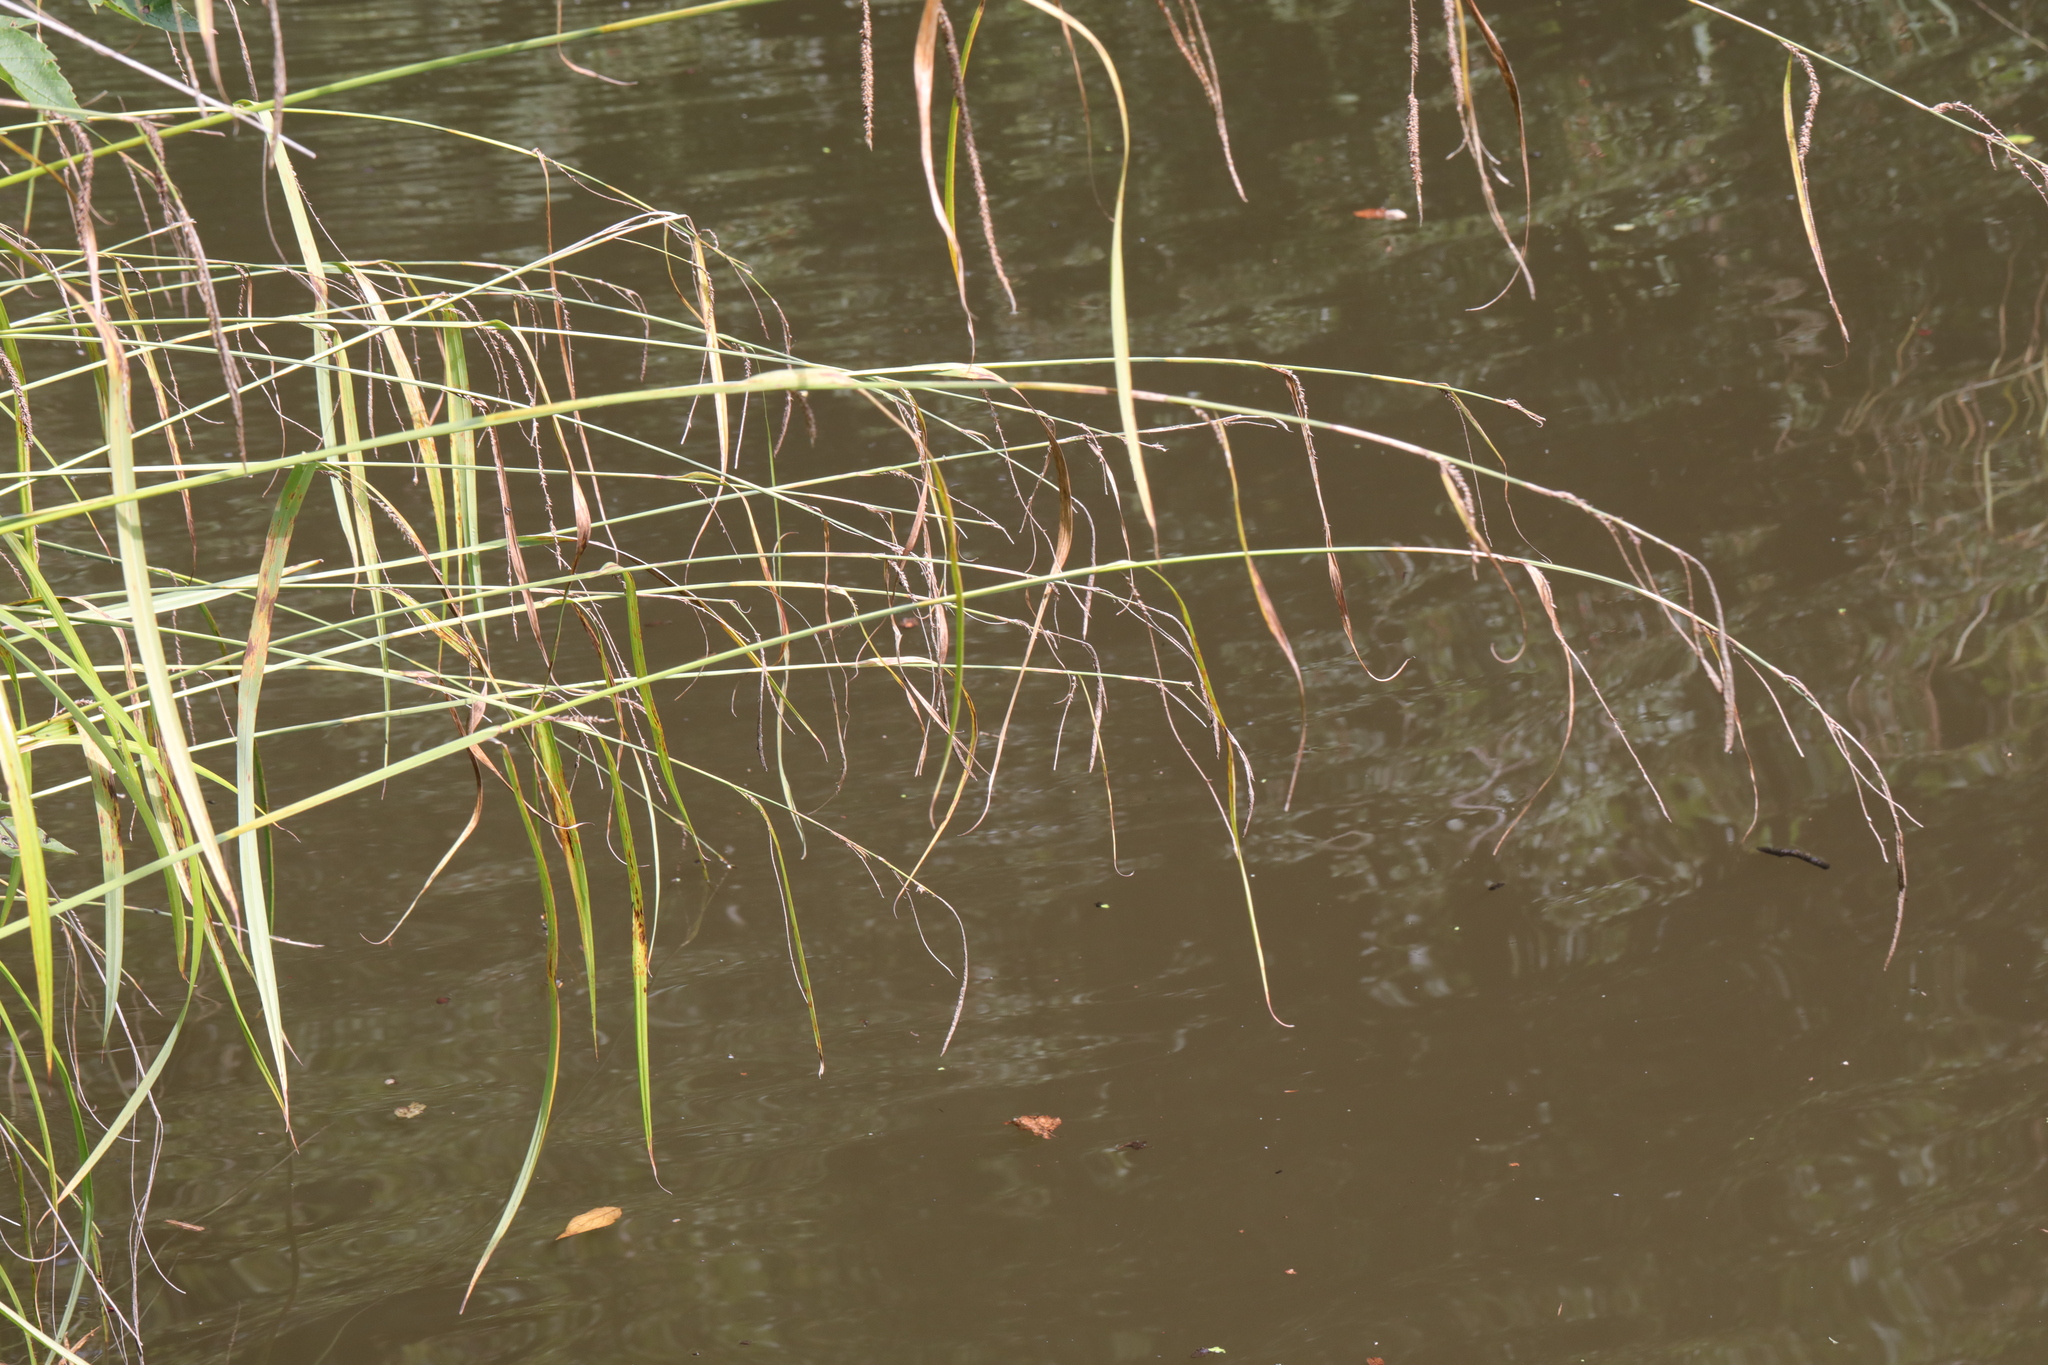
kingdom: Plantae
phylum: Tracheophyta
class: Liliopsida
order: Poales
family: Cyperaceae
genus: Carex
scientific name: Carex pendula
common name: Pendulous sedge
